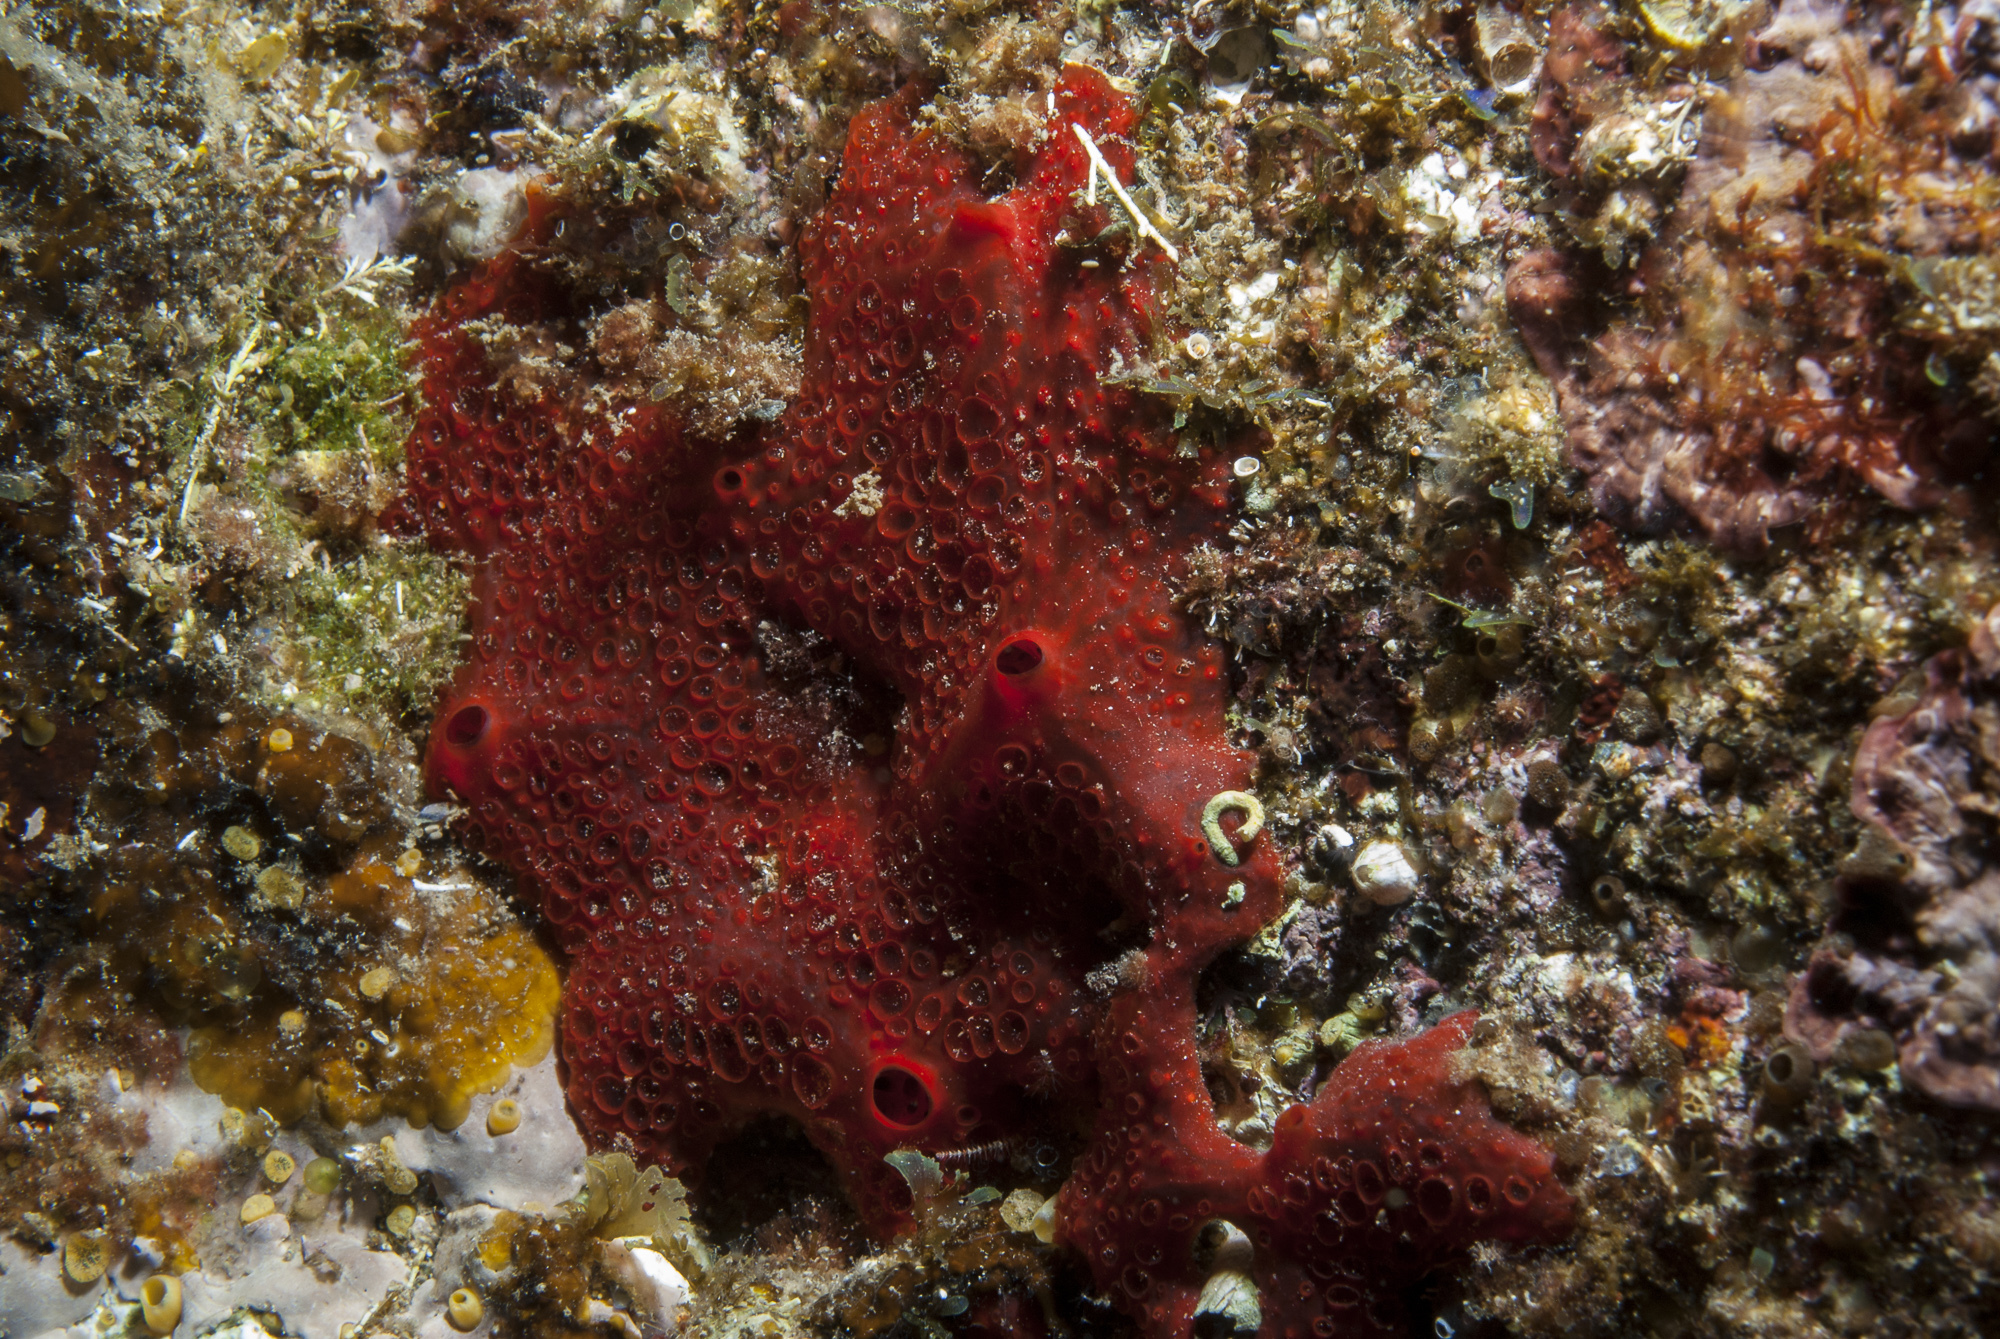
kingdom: Animalia
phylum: Porifera
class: Demospongiae
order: Poecilosclerida
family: Hymedesmiidae
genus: Hamigera
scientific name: Hamigera hamigera
